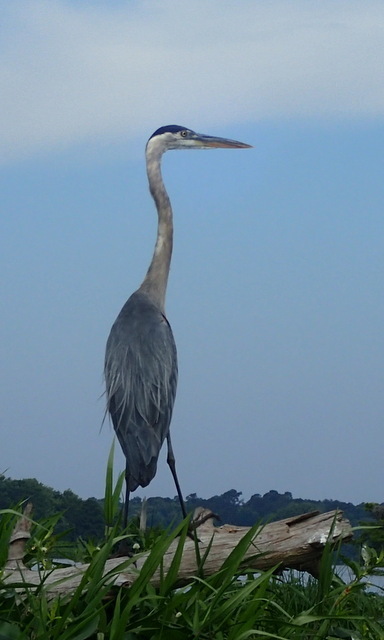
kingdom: Animalia
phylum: Chordata
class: Aves
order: Pelecaniformes
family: Ardeidae
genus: Ardea
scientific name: Ardea herodias
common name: Great blue heron
